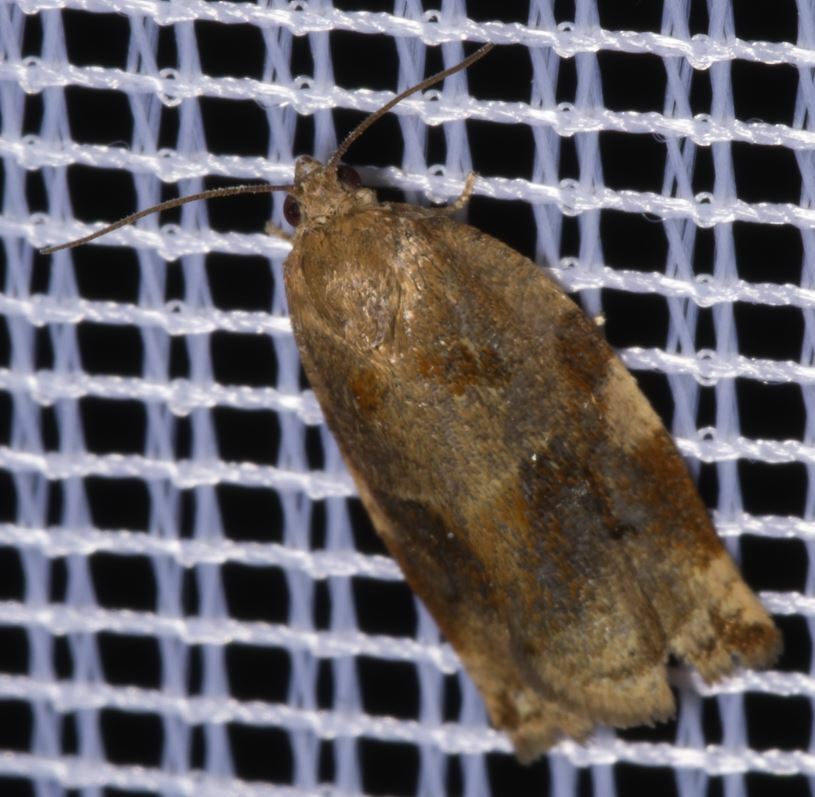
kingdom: Animalia
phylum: Arthropoda
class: Insecta
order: Lepidoptera
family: Tortricidae
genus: Archips
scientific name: Archips xylosteana
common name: Variegated golden tortrix
